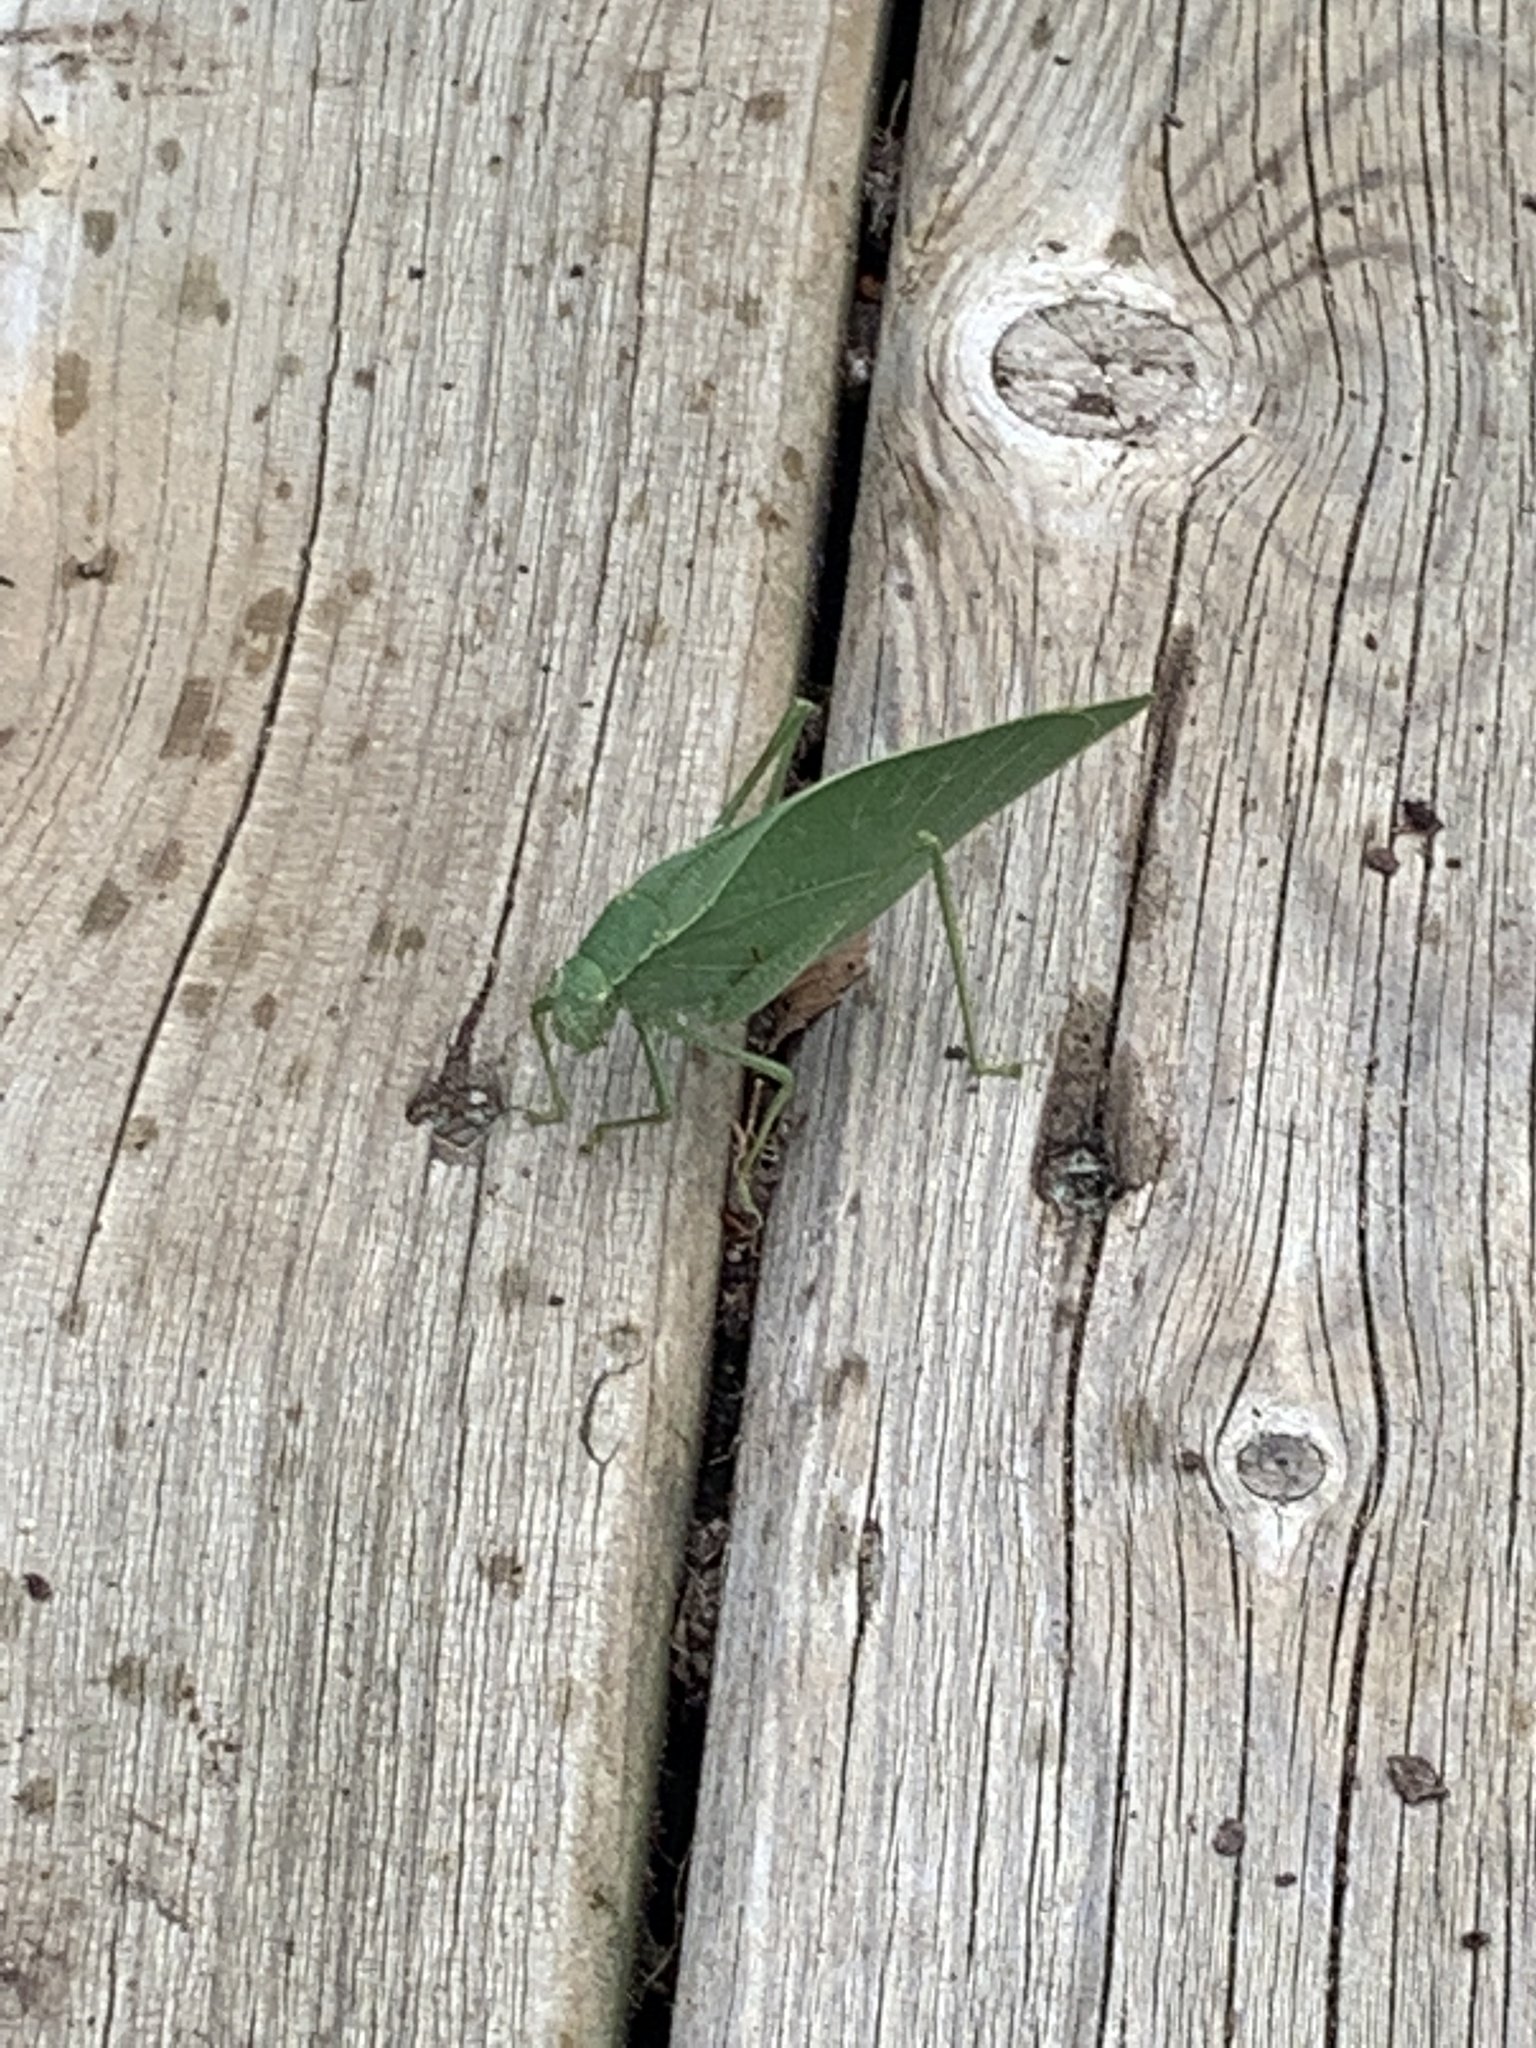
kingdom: Animalia
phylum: Arthropoda
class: Insecta
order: Orthoptera
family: Tettigoniidae
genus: Microcentrum
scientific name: Microcentrum rhombifolium
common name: Broad-winged katydid
